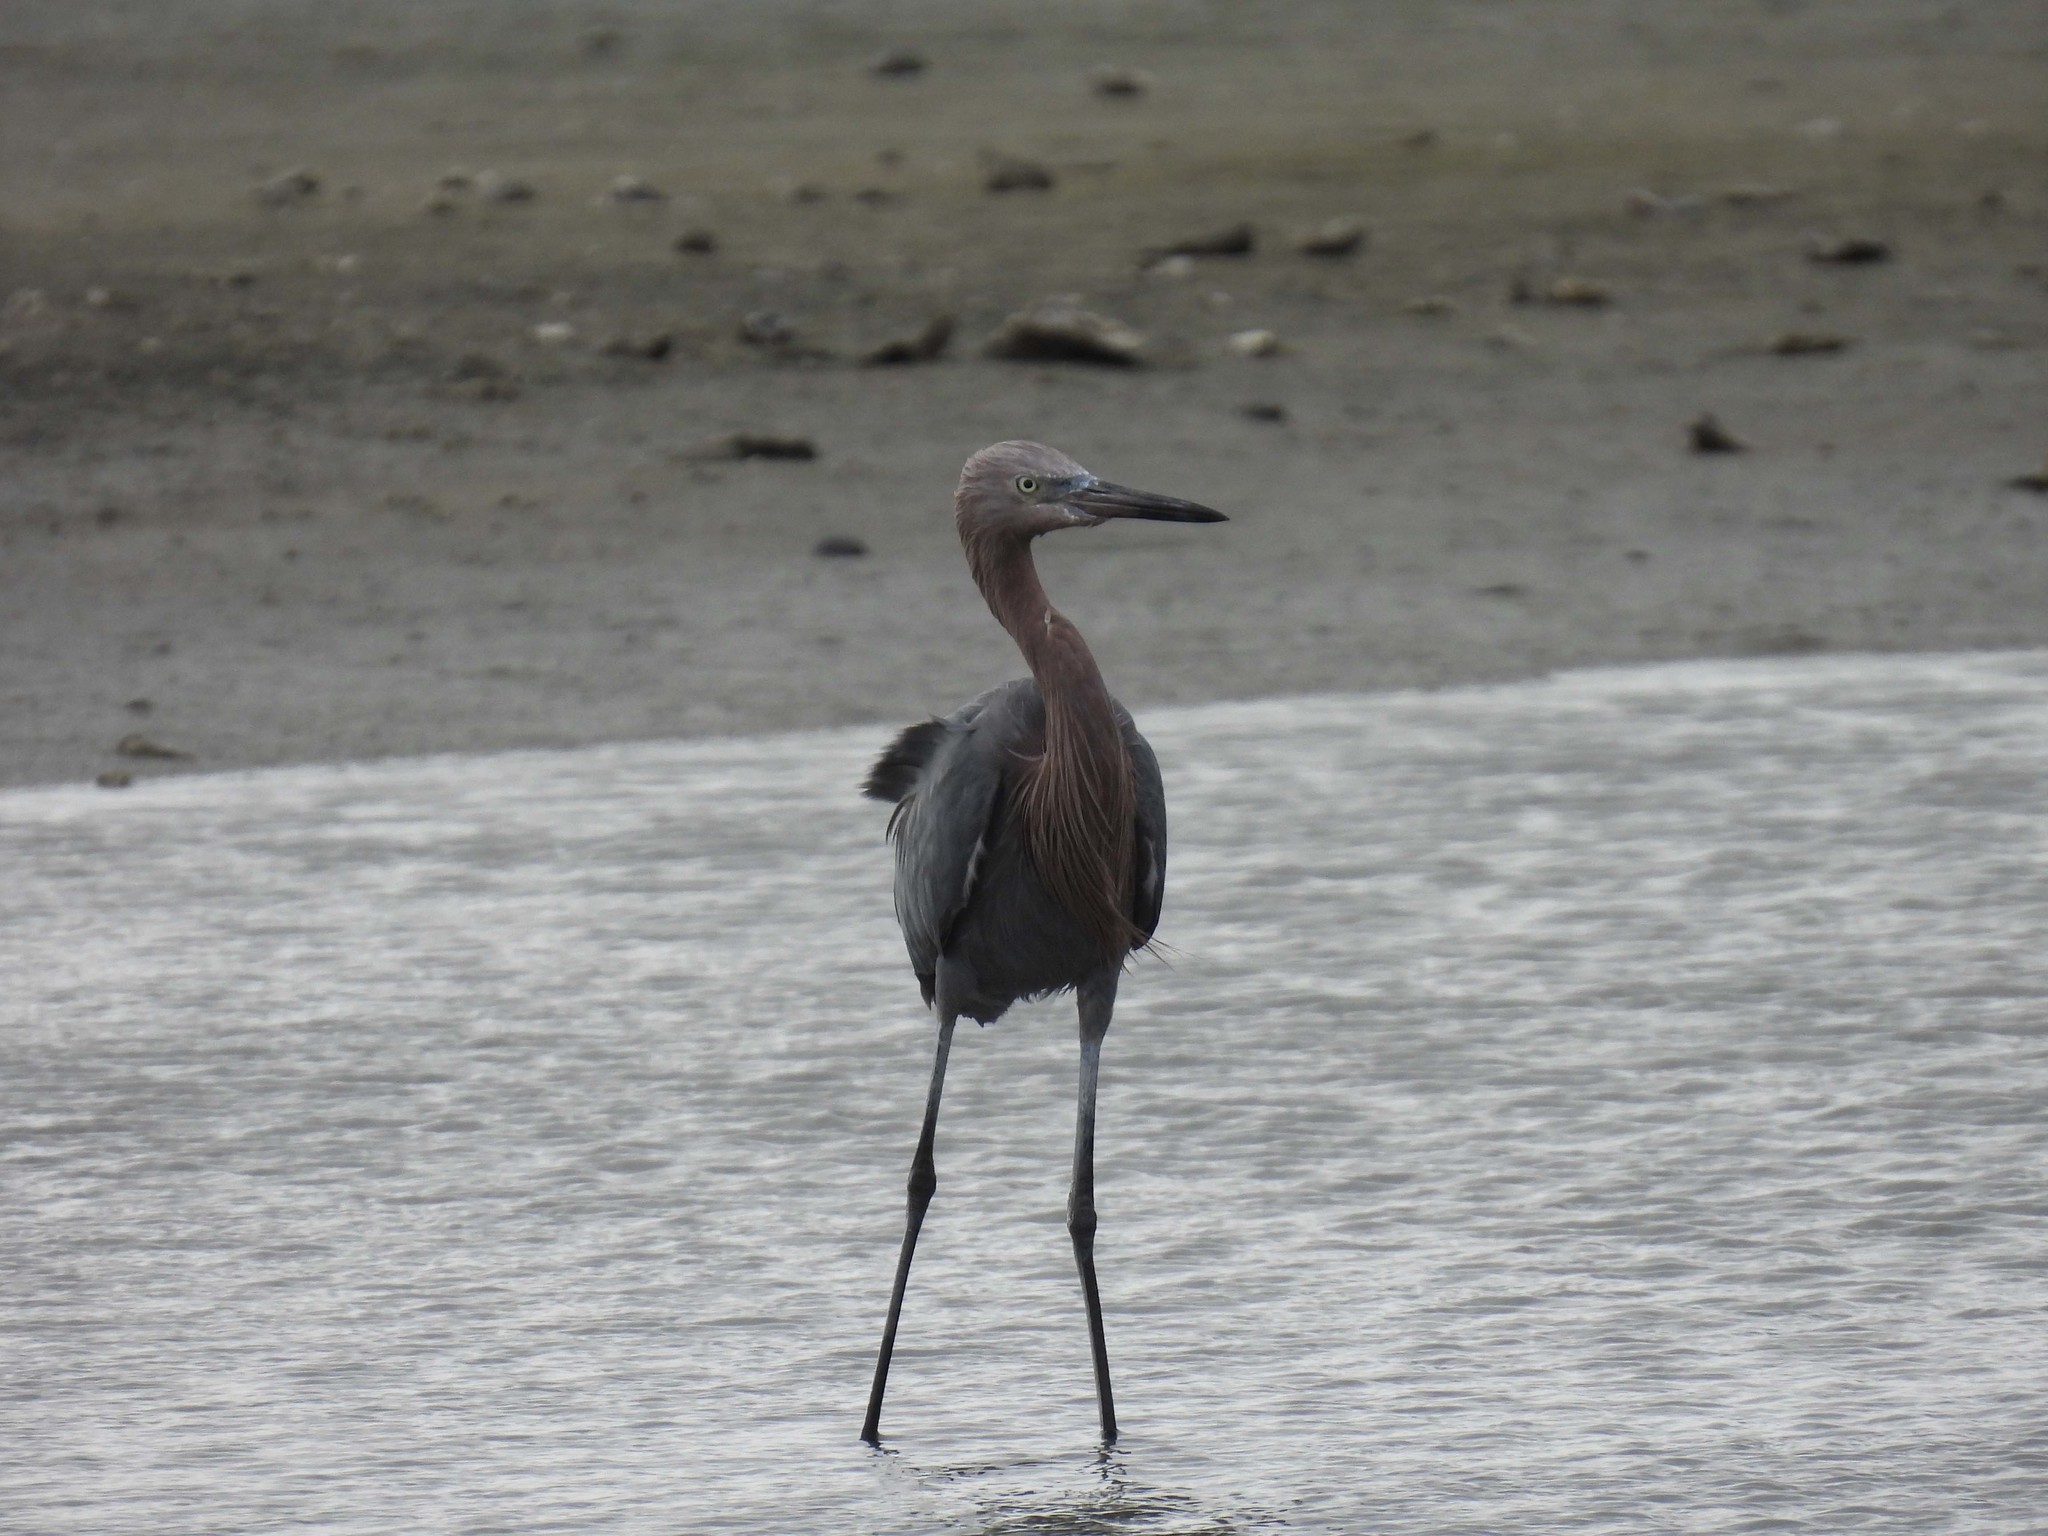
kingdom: Animalia
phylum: Chordata
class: Aves
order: Pelecaniformes
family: Ardeidae
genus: Egretta
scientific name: Egretta rufescens
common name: Reddish egret
